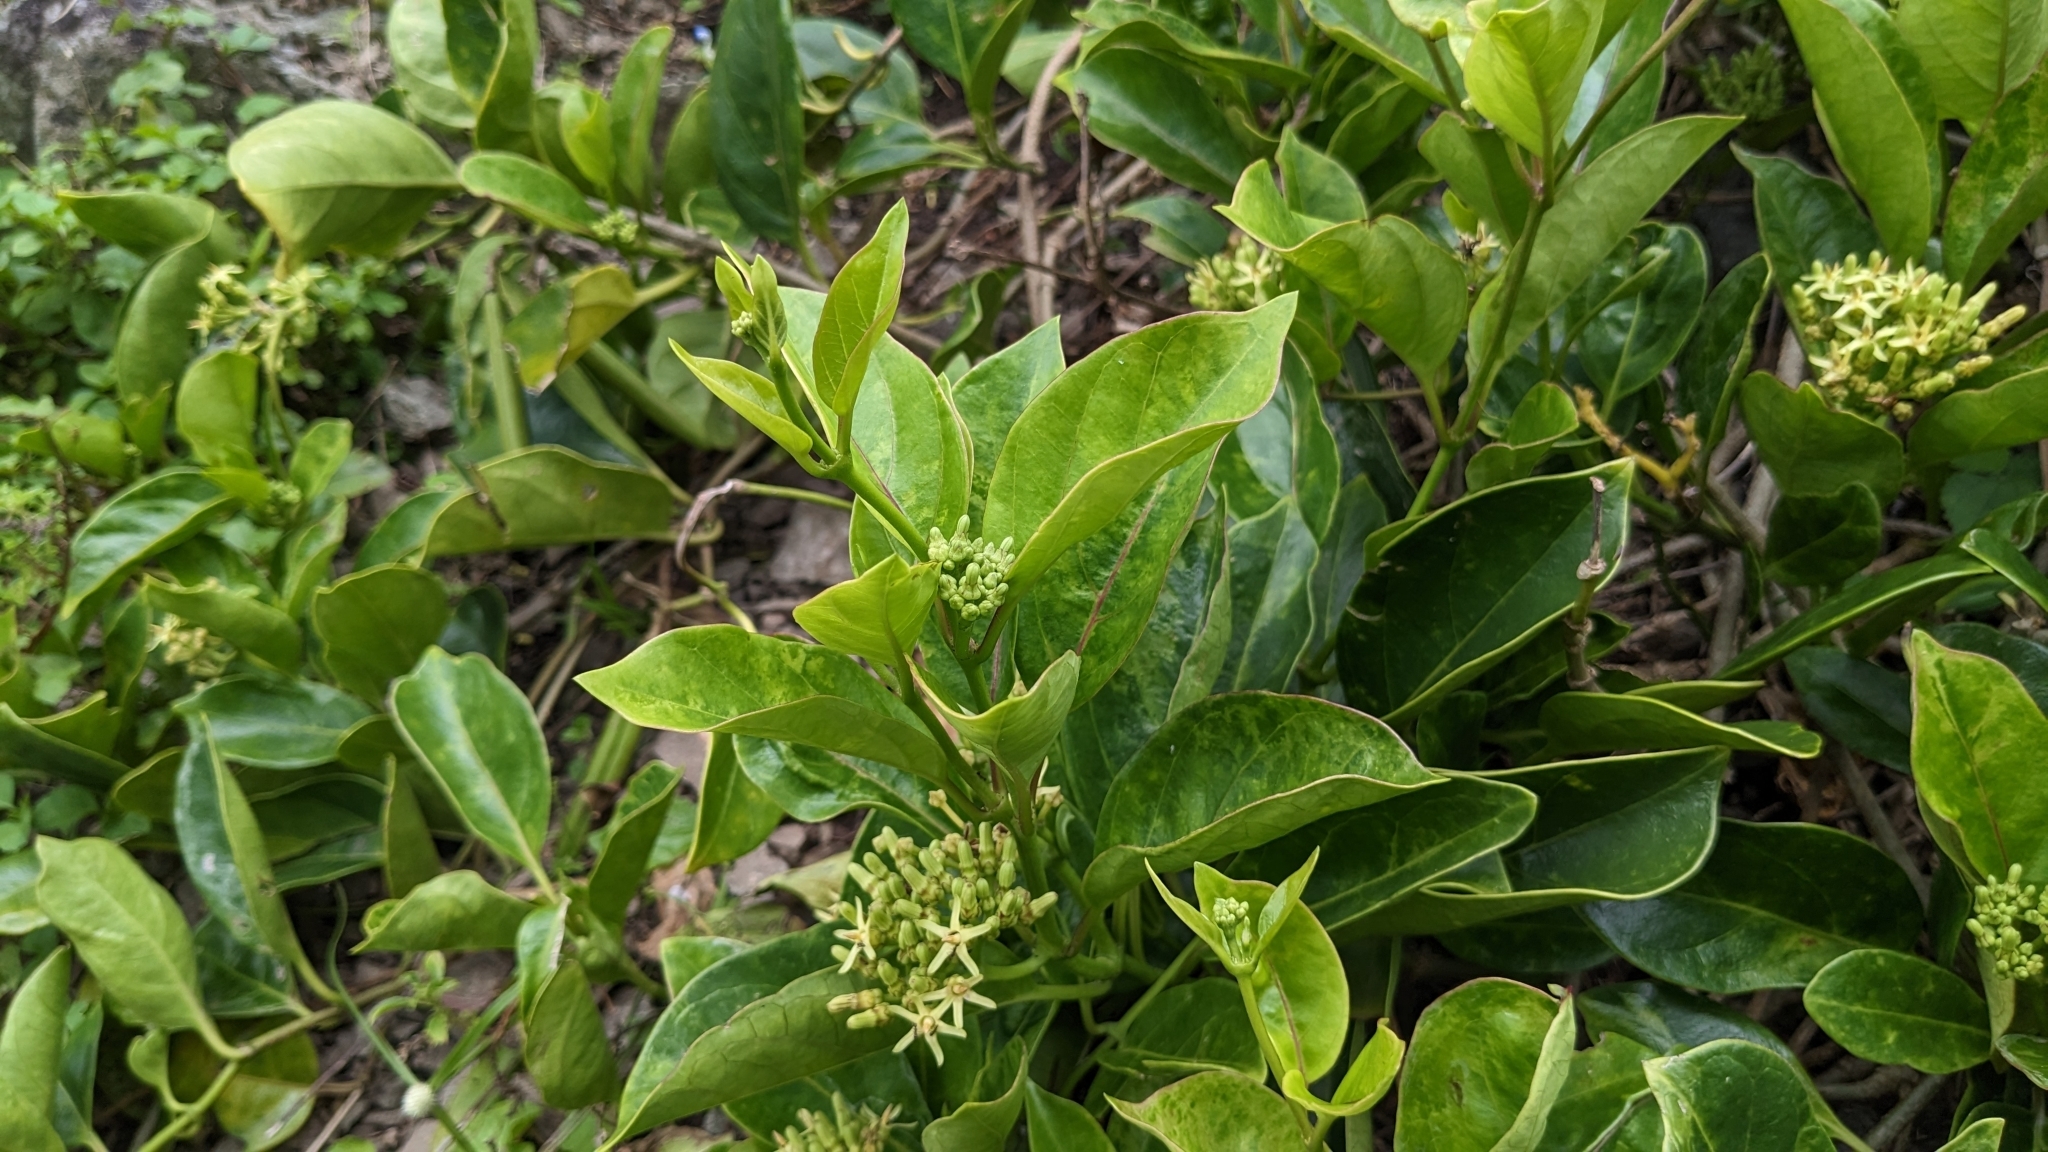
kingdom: Plantae
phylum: Tracheophyta
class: Magnoliopsida
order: Gentianales
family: Apocynaceae
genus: Parsonsia
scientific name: Parsonsia alboflavescens
